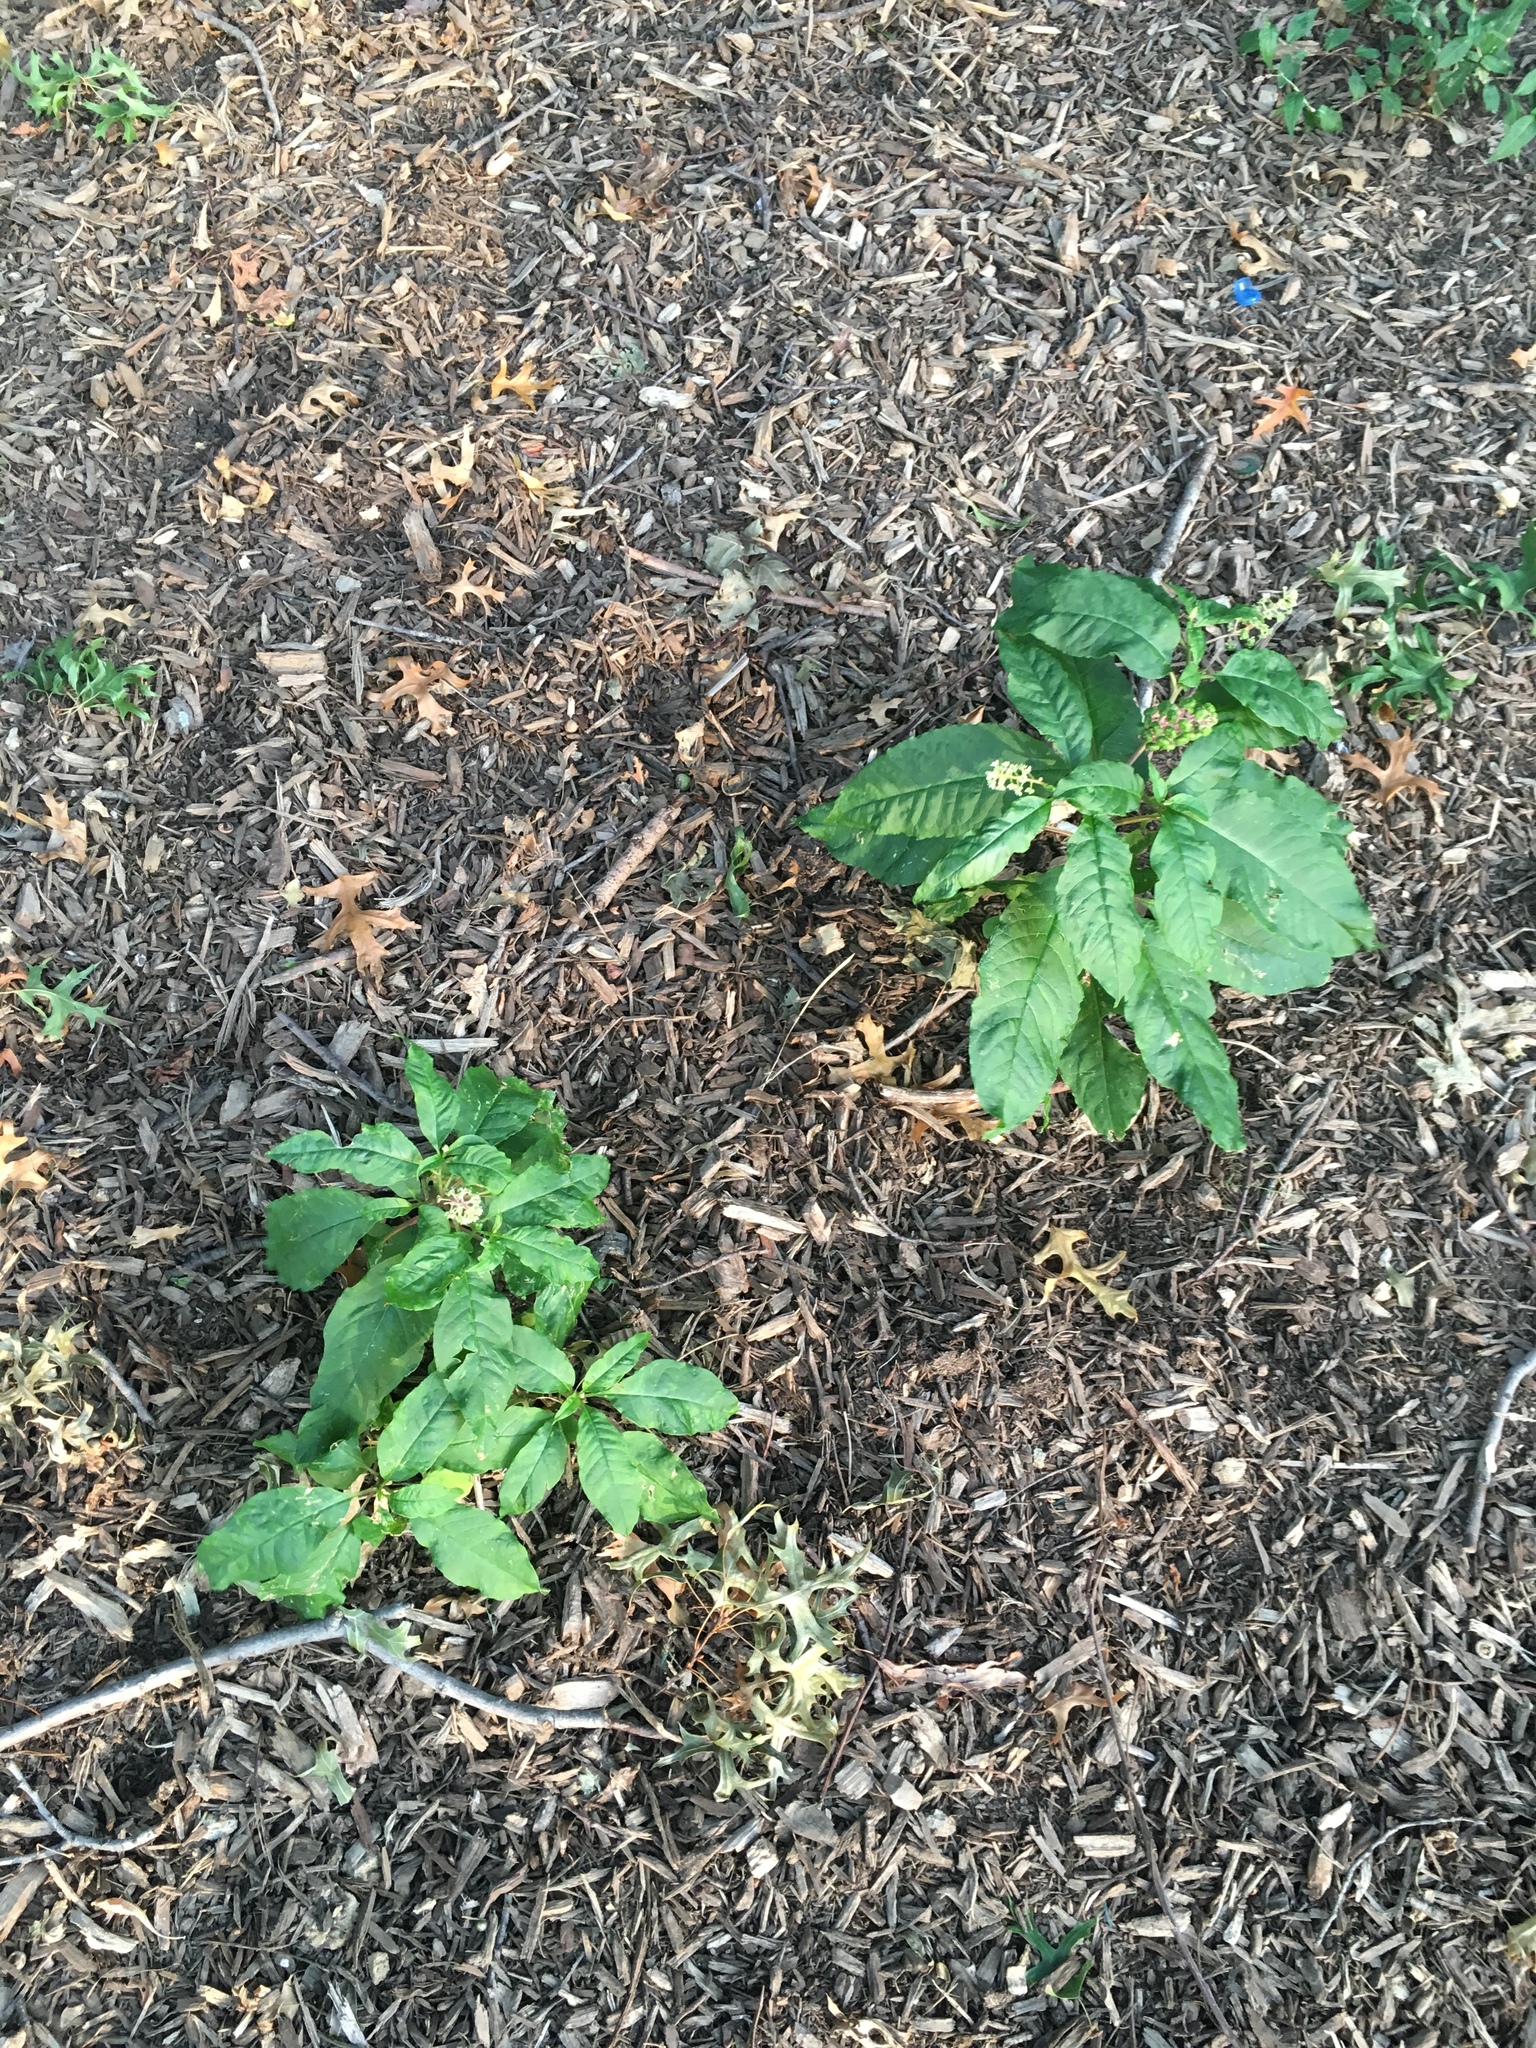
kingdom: Plantae
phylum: Tracheophyta
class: Magnoliopsida
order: Caryophyllales
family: Phytolaccaceae
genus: Phytolacca
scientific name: Phytolacca americana
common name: American pokeweed
